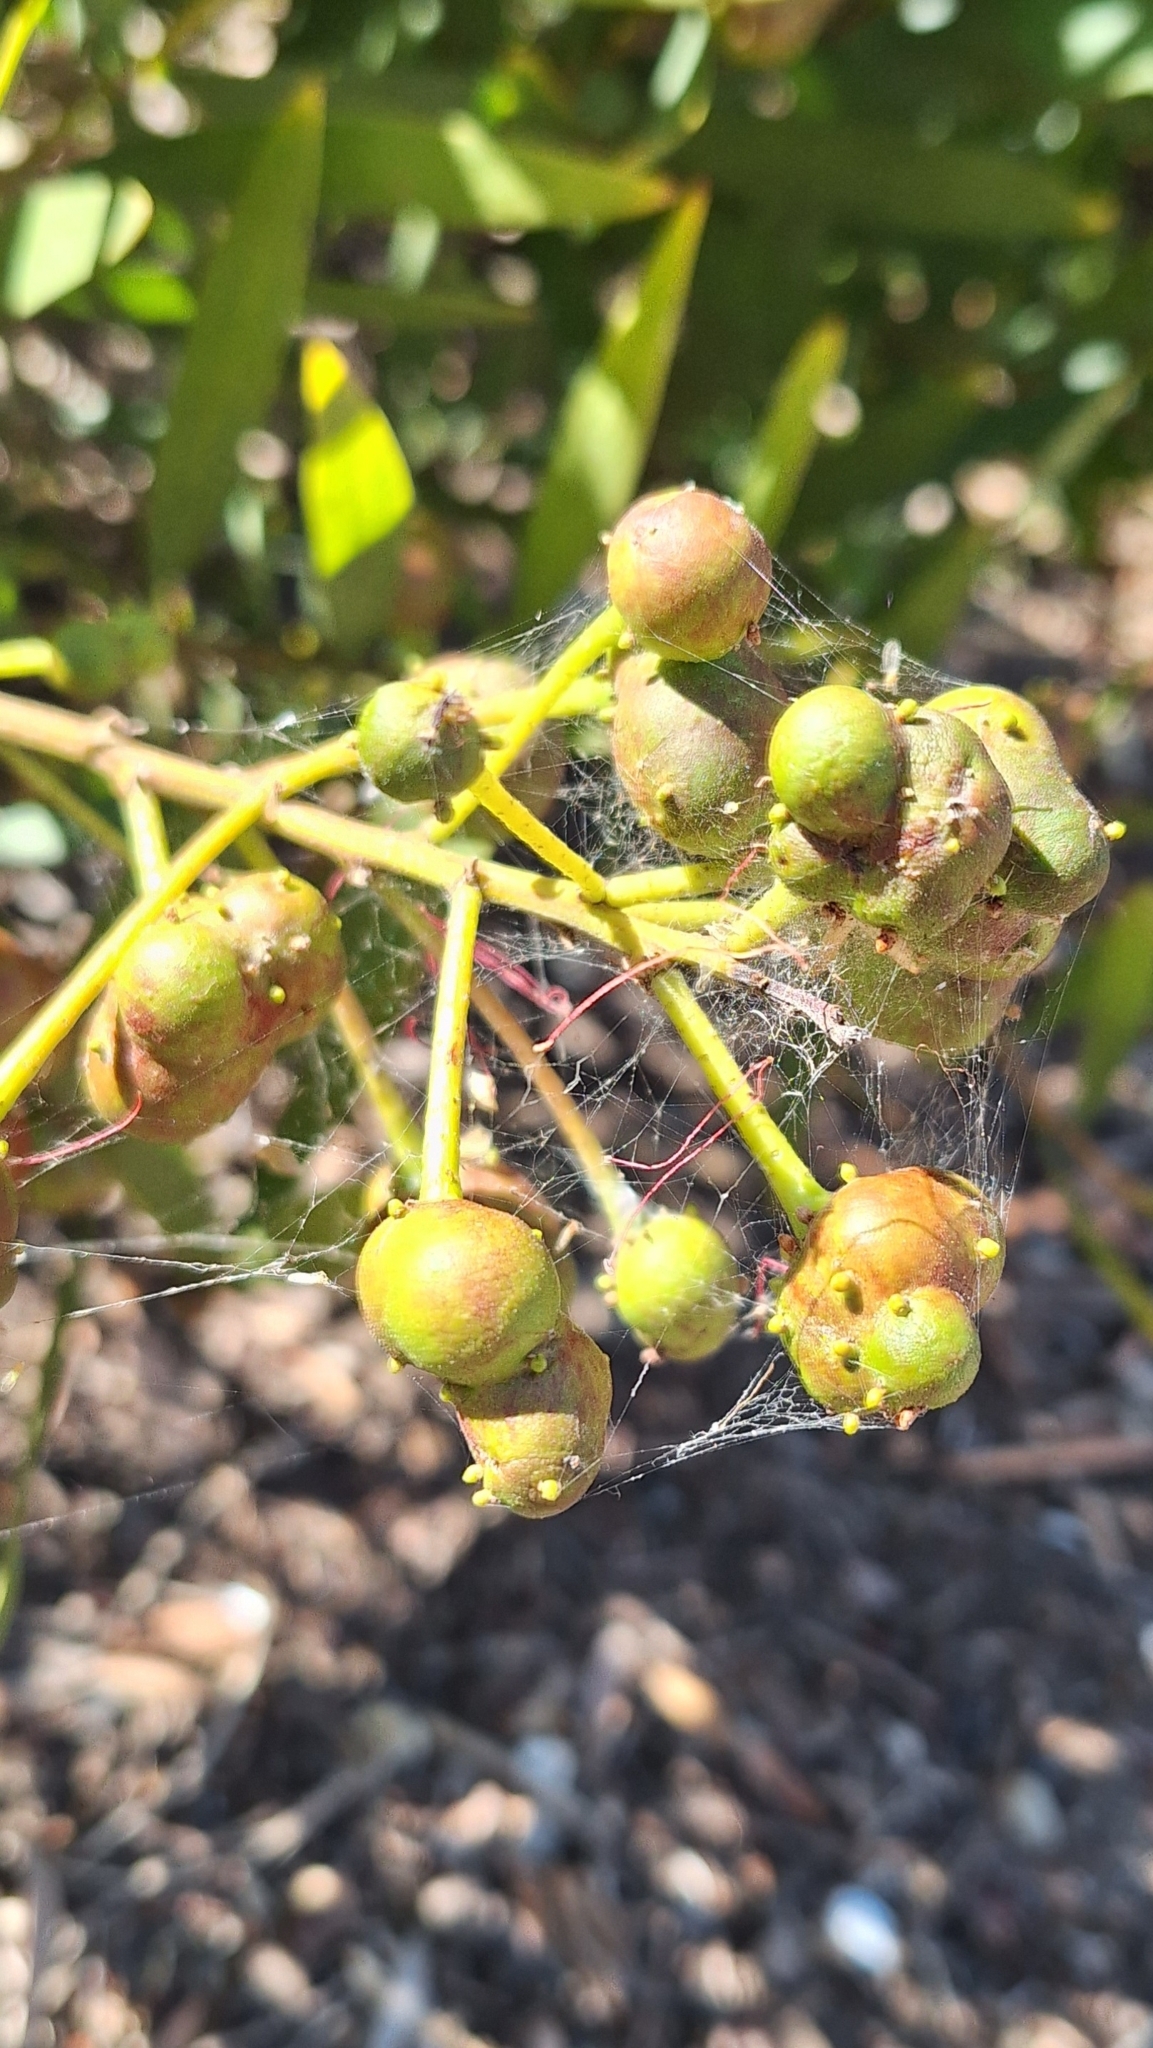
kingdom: Animalia
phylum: Arthropoda
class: Insecta
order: Hymenoptera
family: Pteromalidae
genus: Trichilogaster
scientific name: Trichilogaster acaciaelongifoliae
